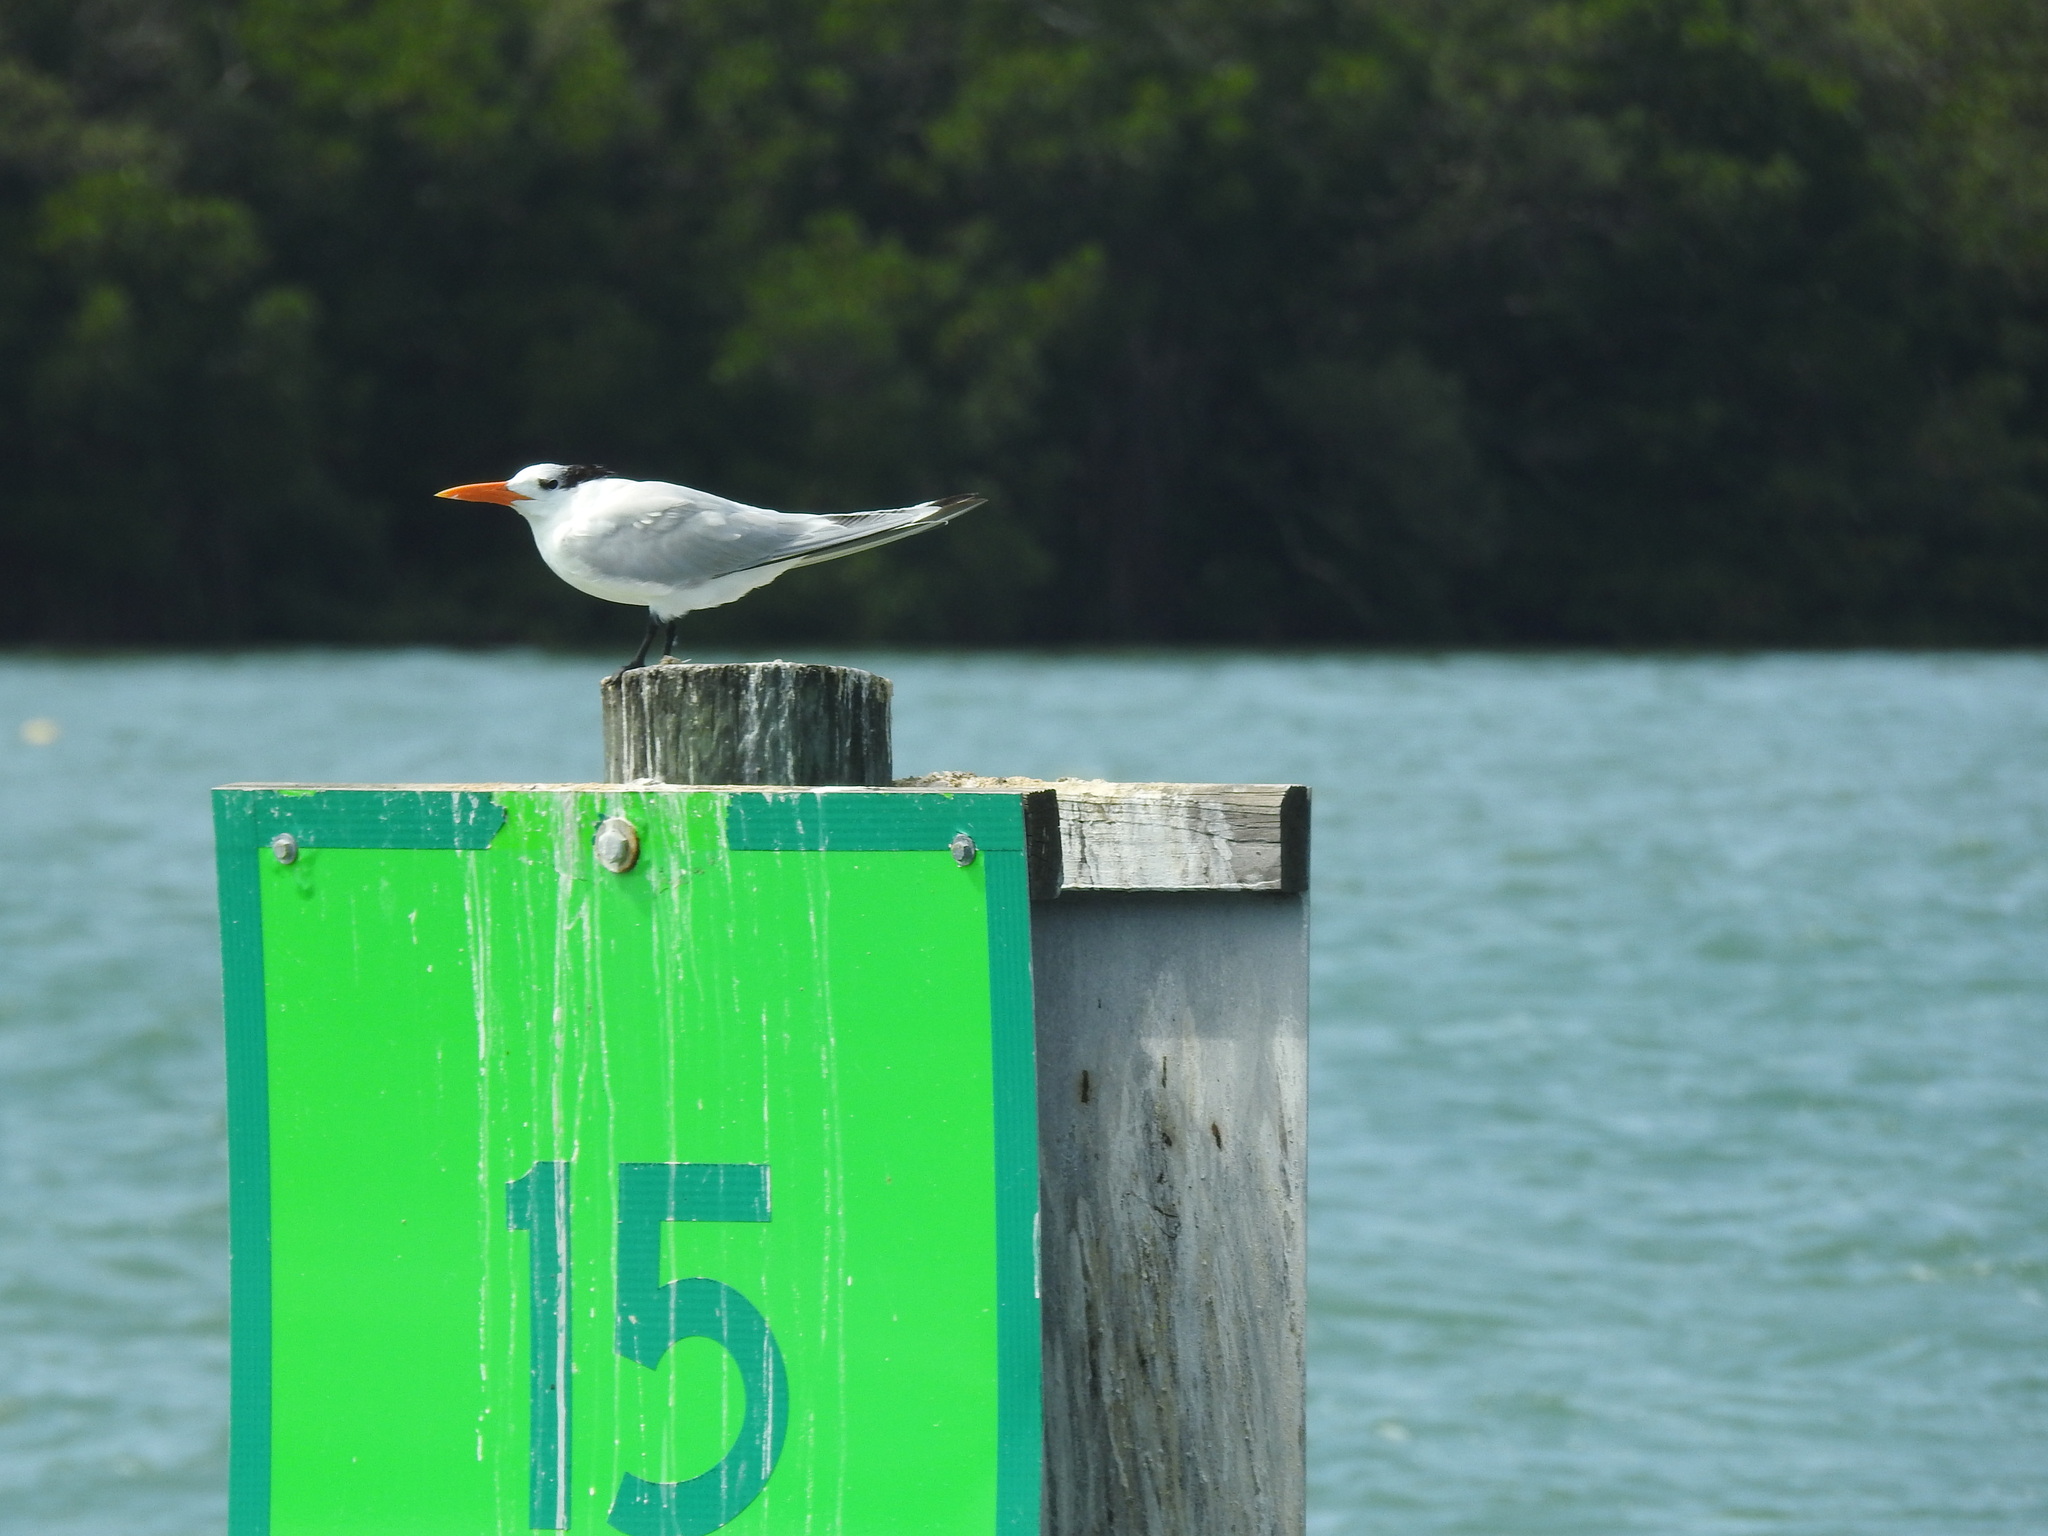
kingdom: Animalia
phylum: Chordata
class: Aves
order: Charadriiformes
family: Laridae
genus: Thalasseus
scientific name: Thalasseus maximus
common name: Royal tern
